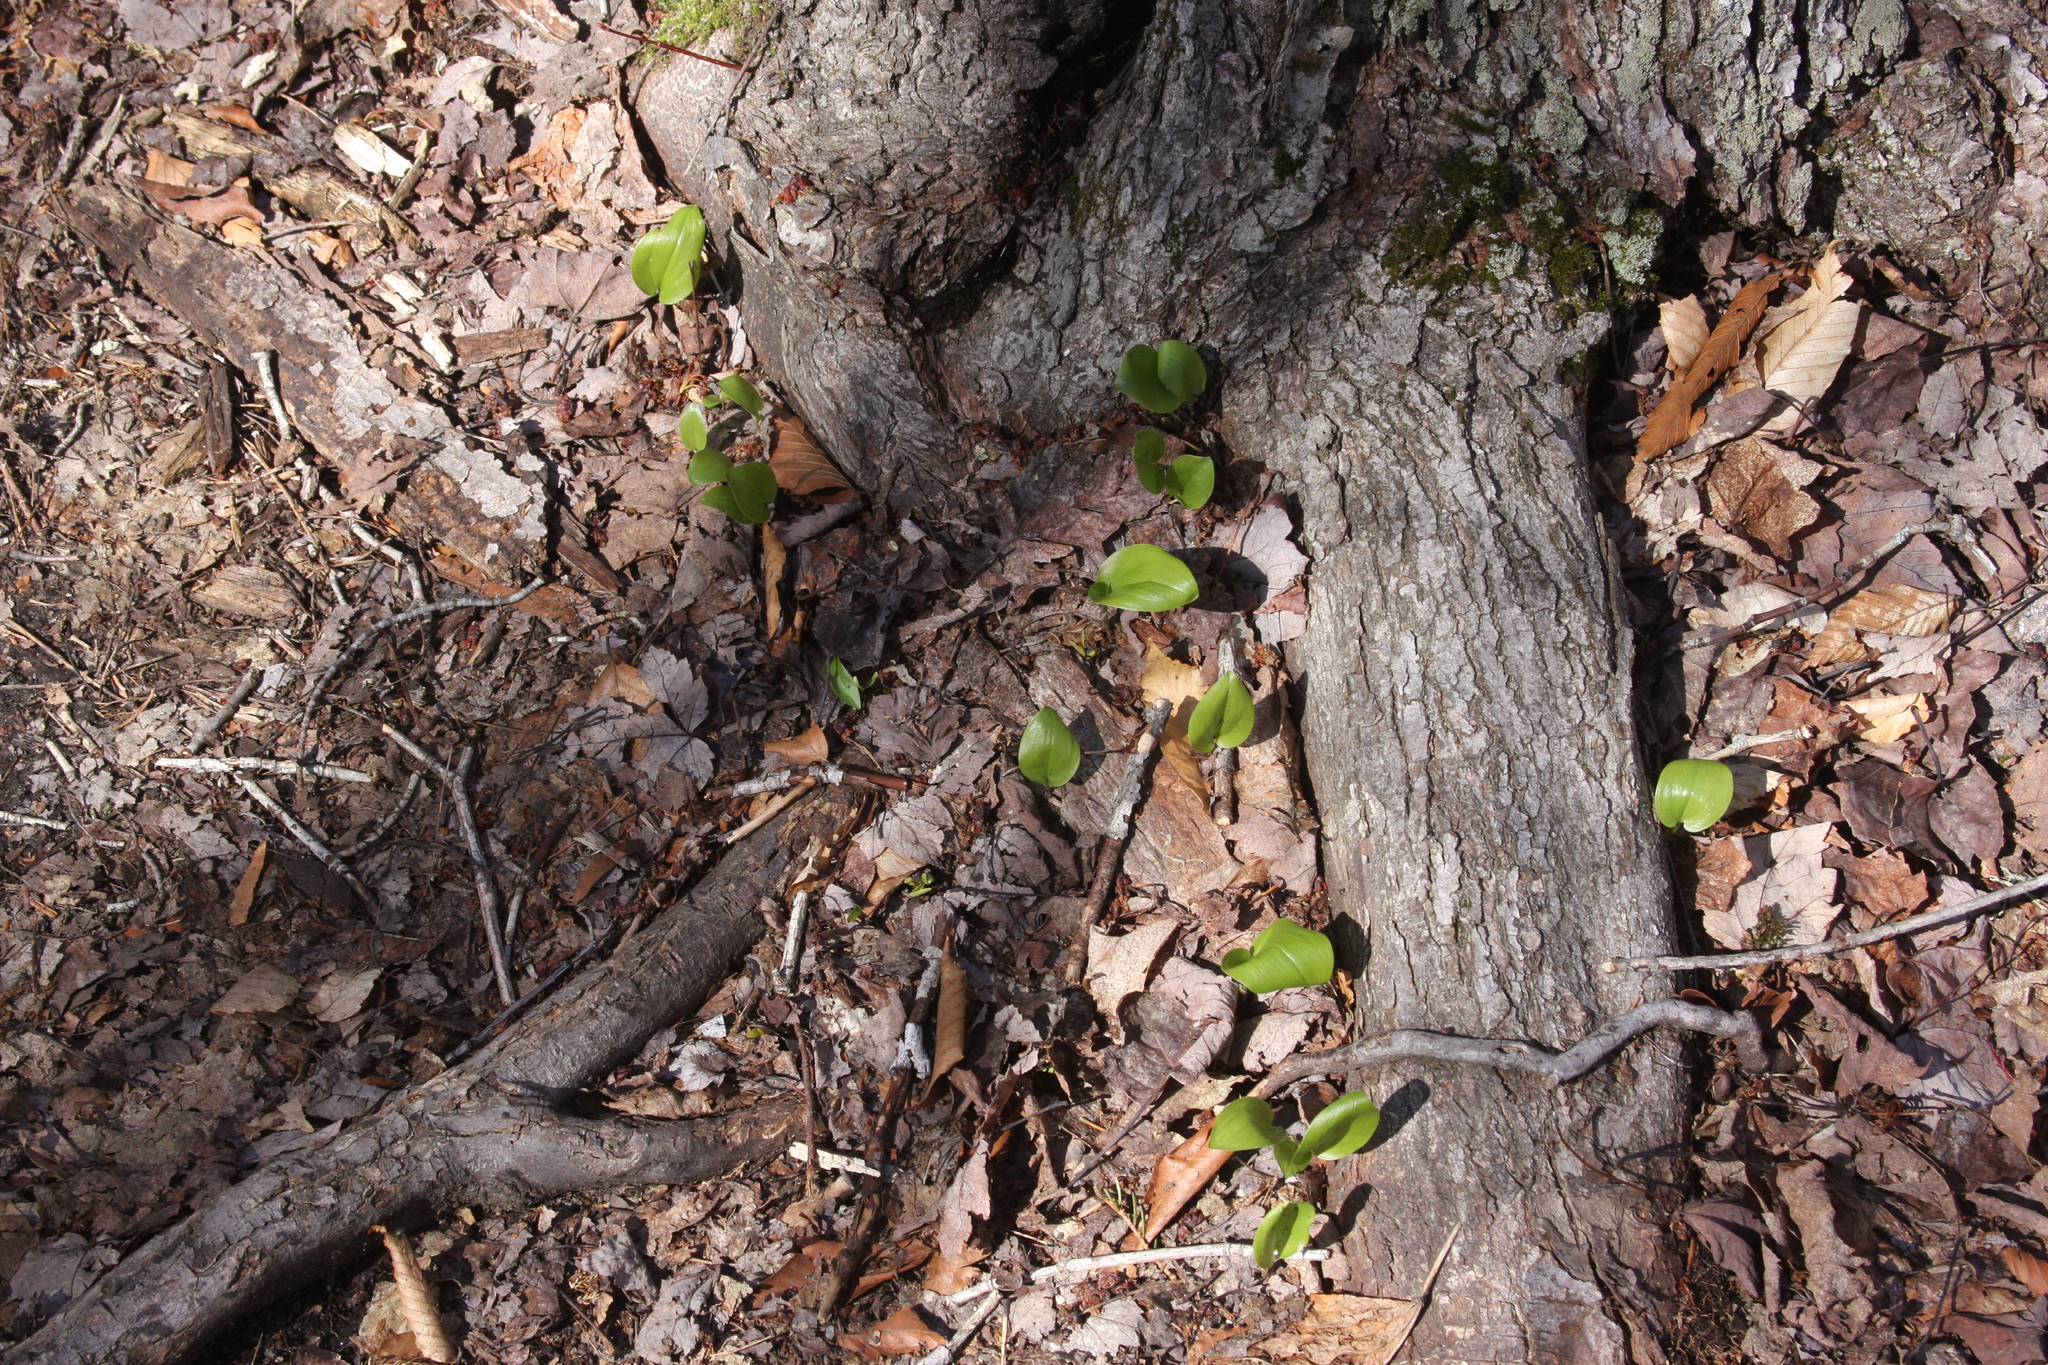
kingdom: Plantae
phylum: Tracheophyta
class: Liliopsida
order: Asparagales
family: Asparagaceae
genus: Maianthemum
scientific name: Maianthemum canadense
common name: False lily-of-the-valley
